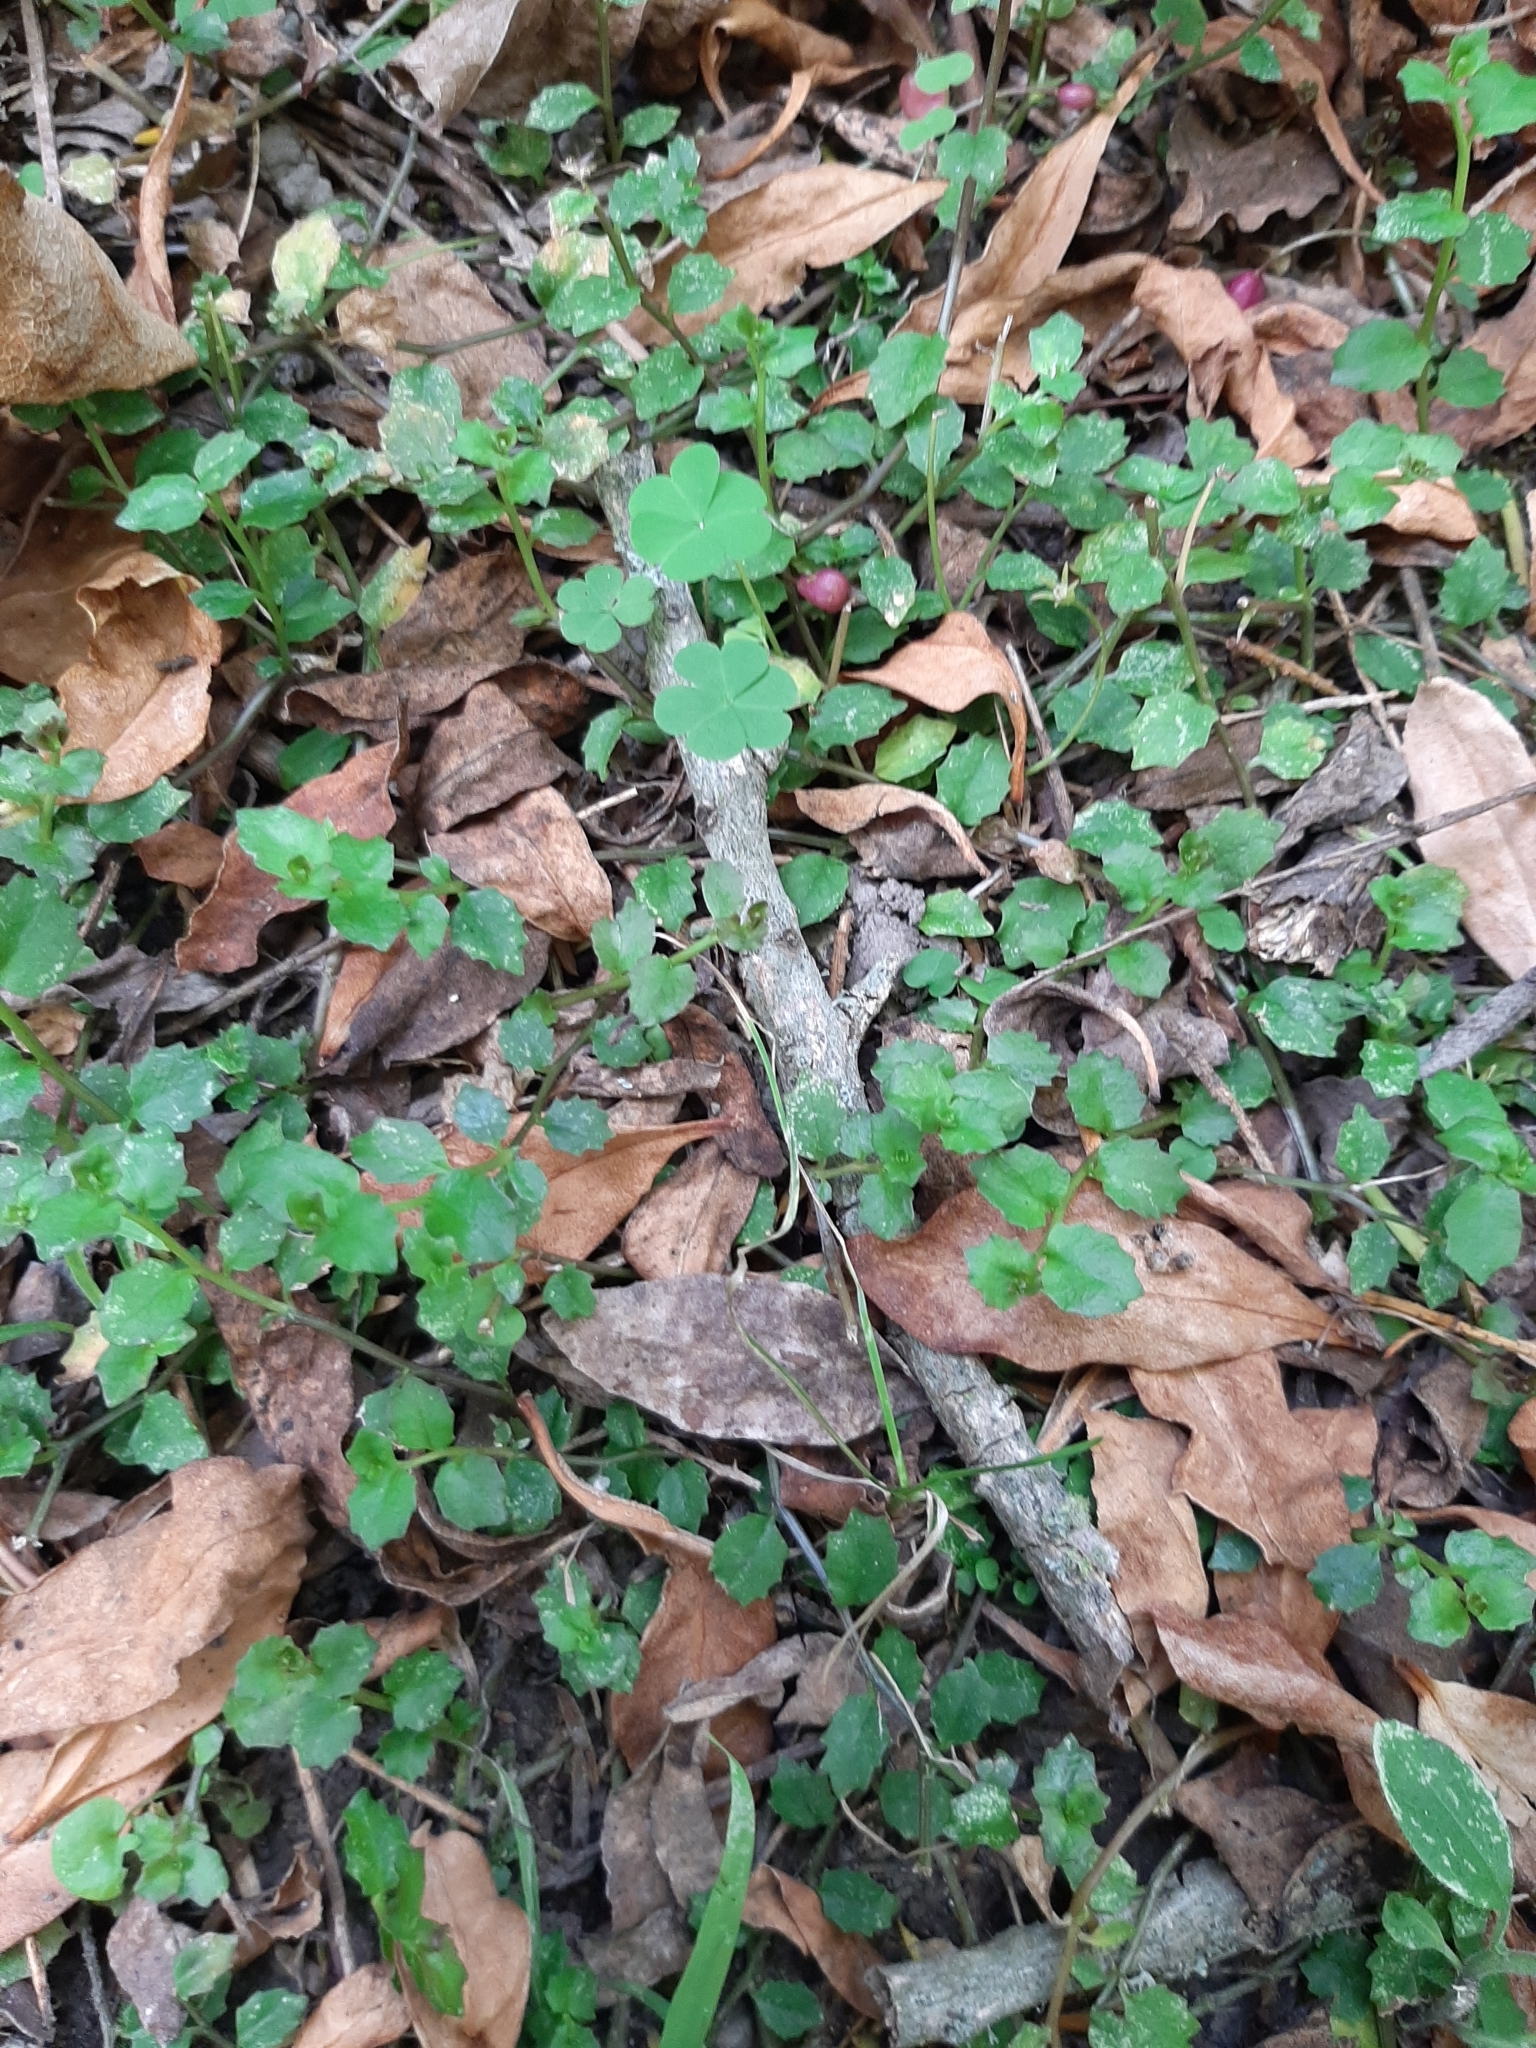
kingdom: Plantae
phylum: Tracheophyta
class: Magnoliopsida
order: Asterales
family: Campanulaceae
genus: Lobelia
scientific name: Lobelia angulata
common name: Lawn lobelia
